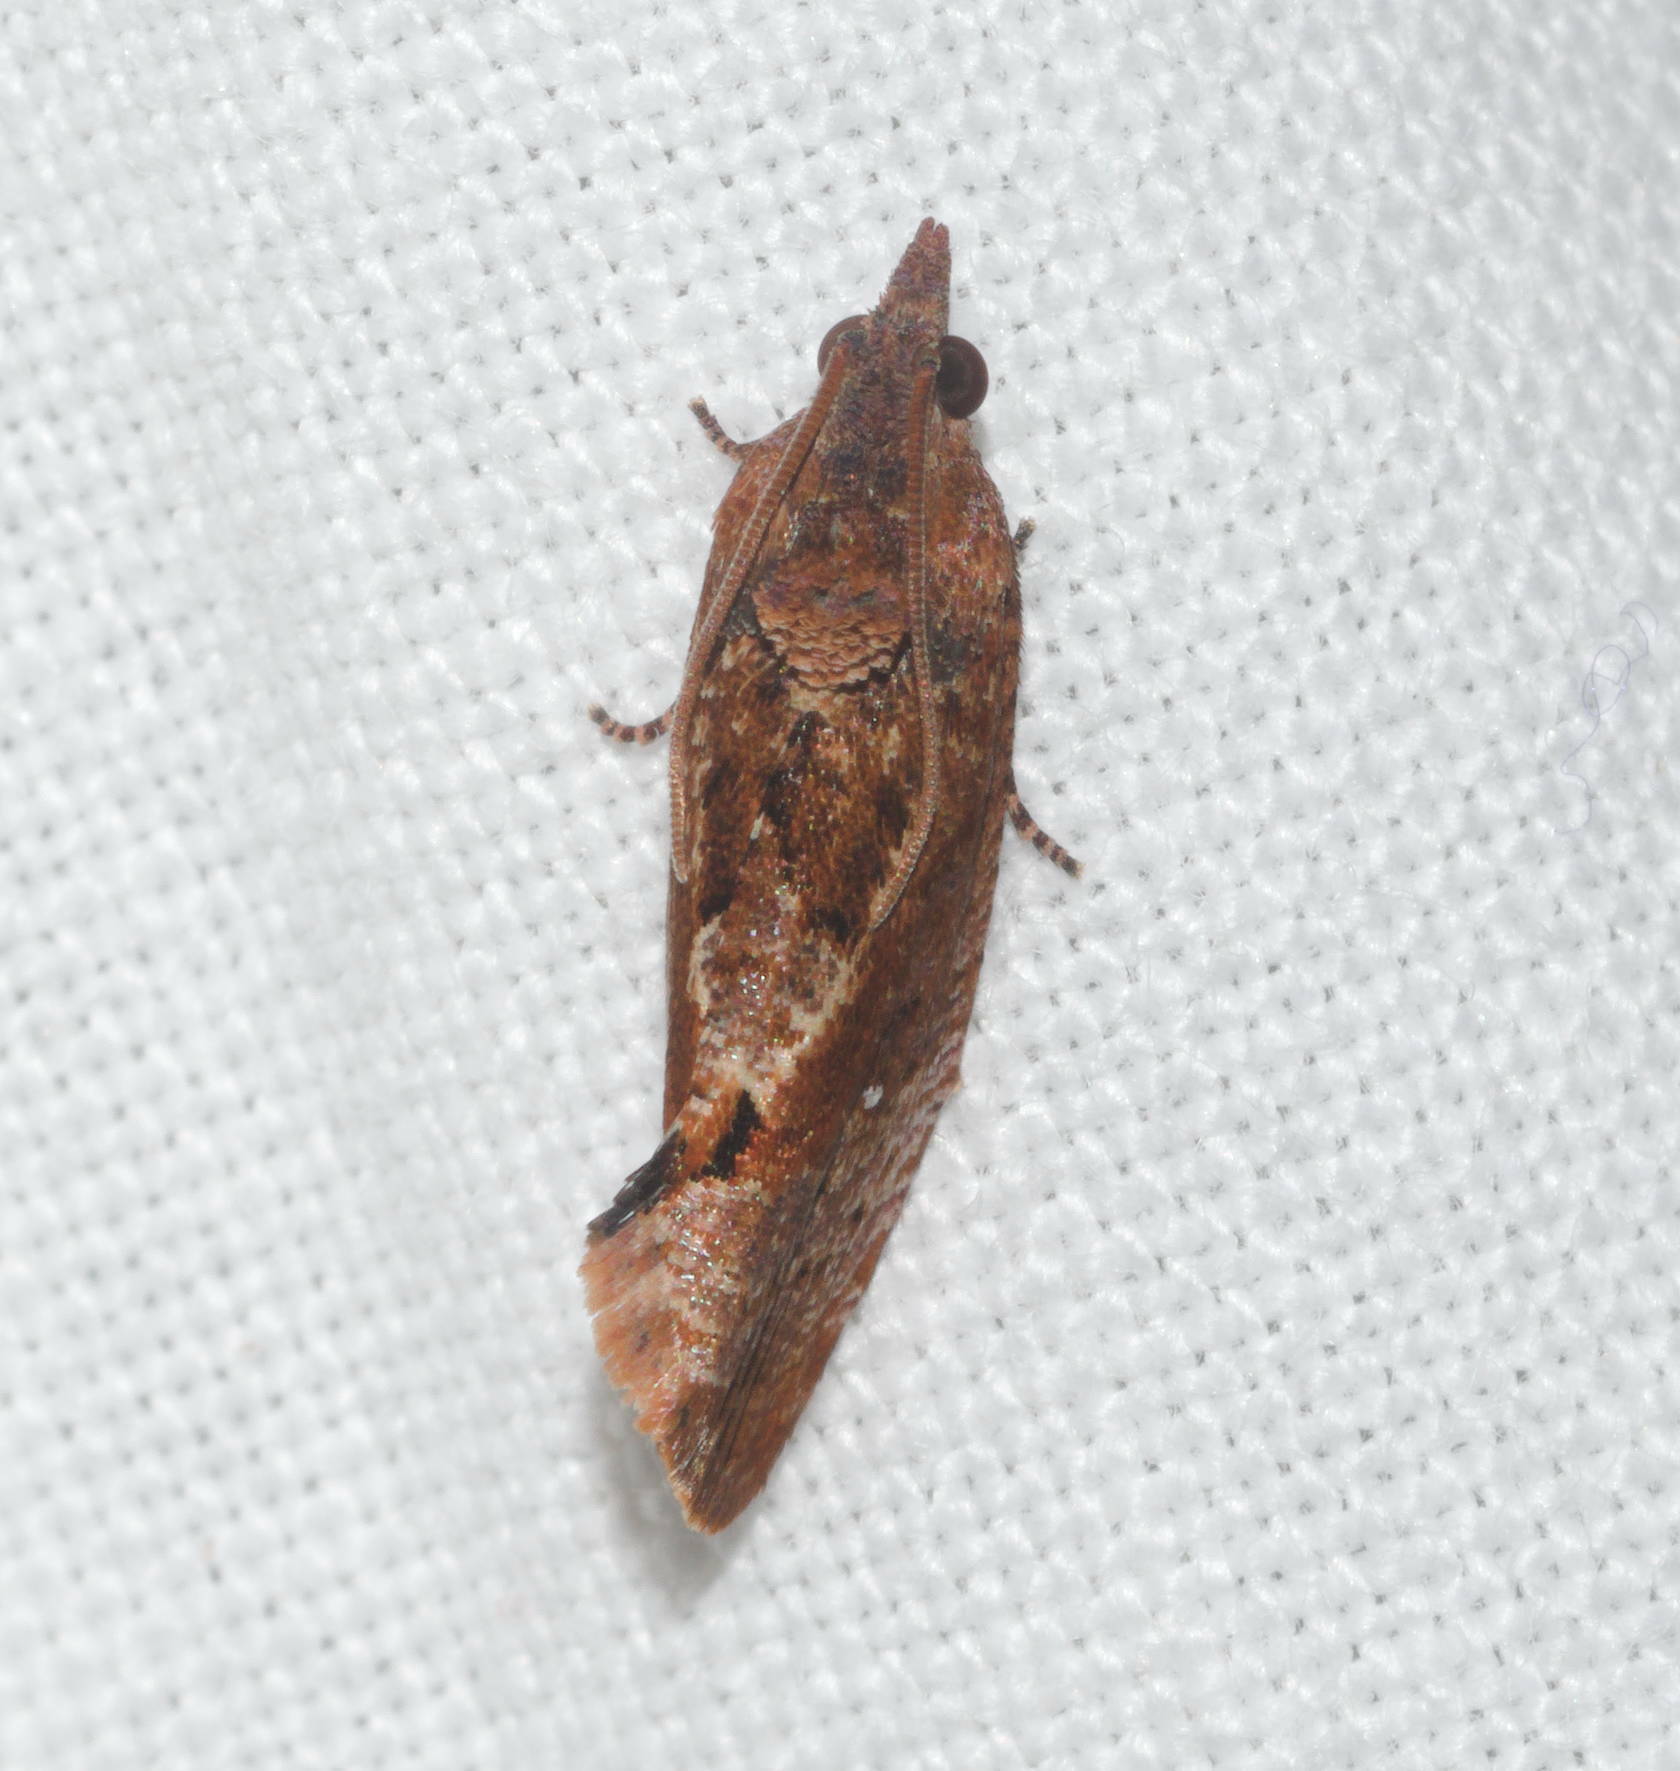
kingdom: Animalia
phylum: Arthropoda
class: Insecta
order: Lepidoptera
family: Tortricidae
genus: Cryptophlebia
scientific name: Cryptophlebia illepida
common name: Moth
